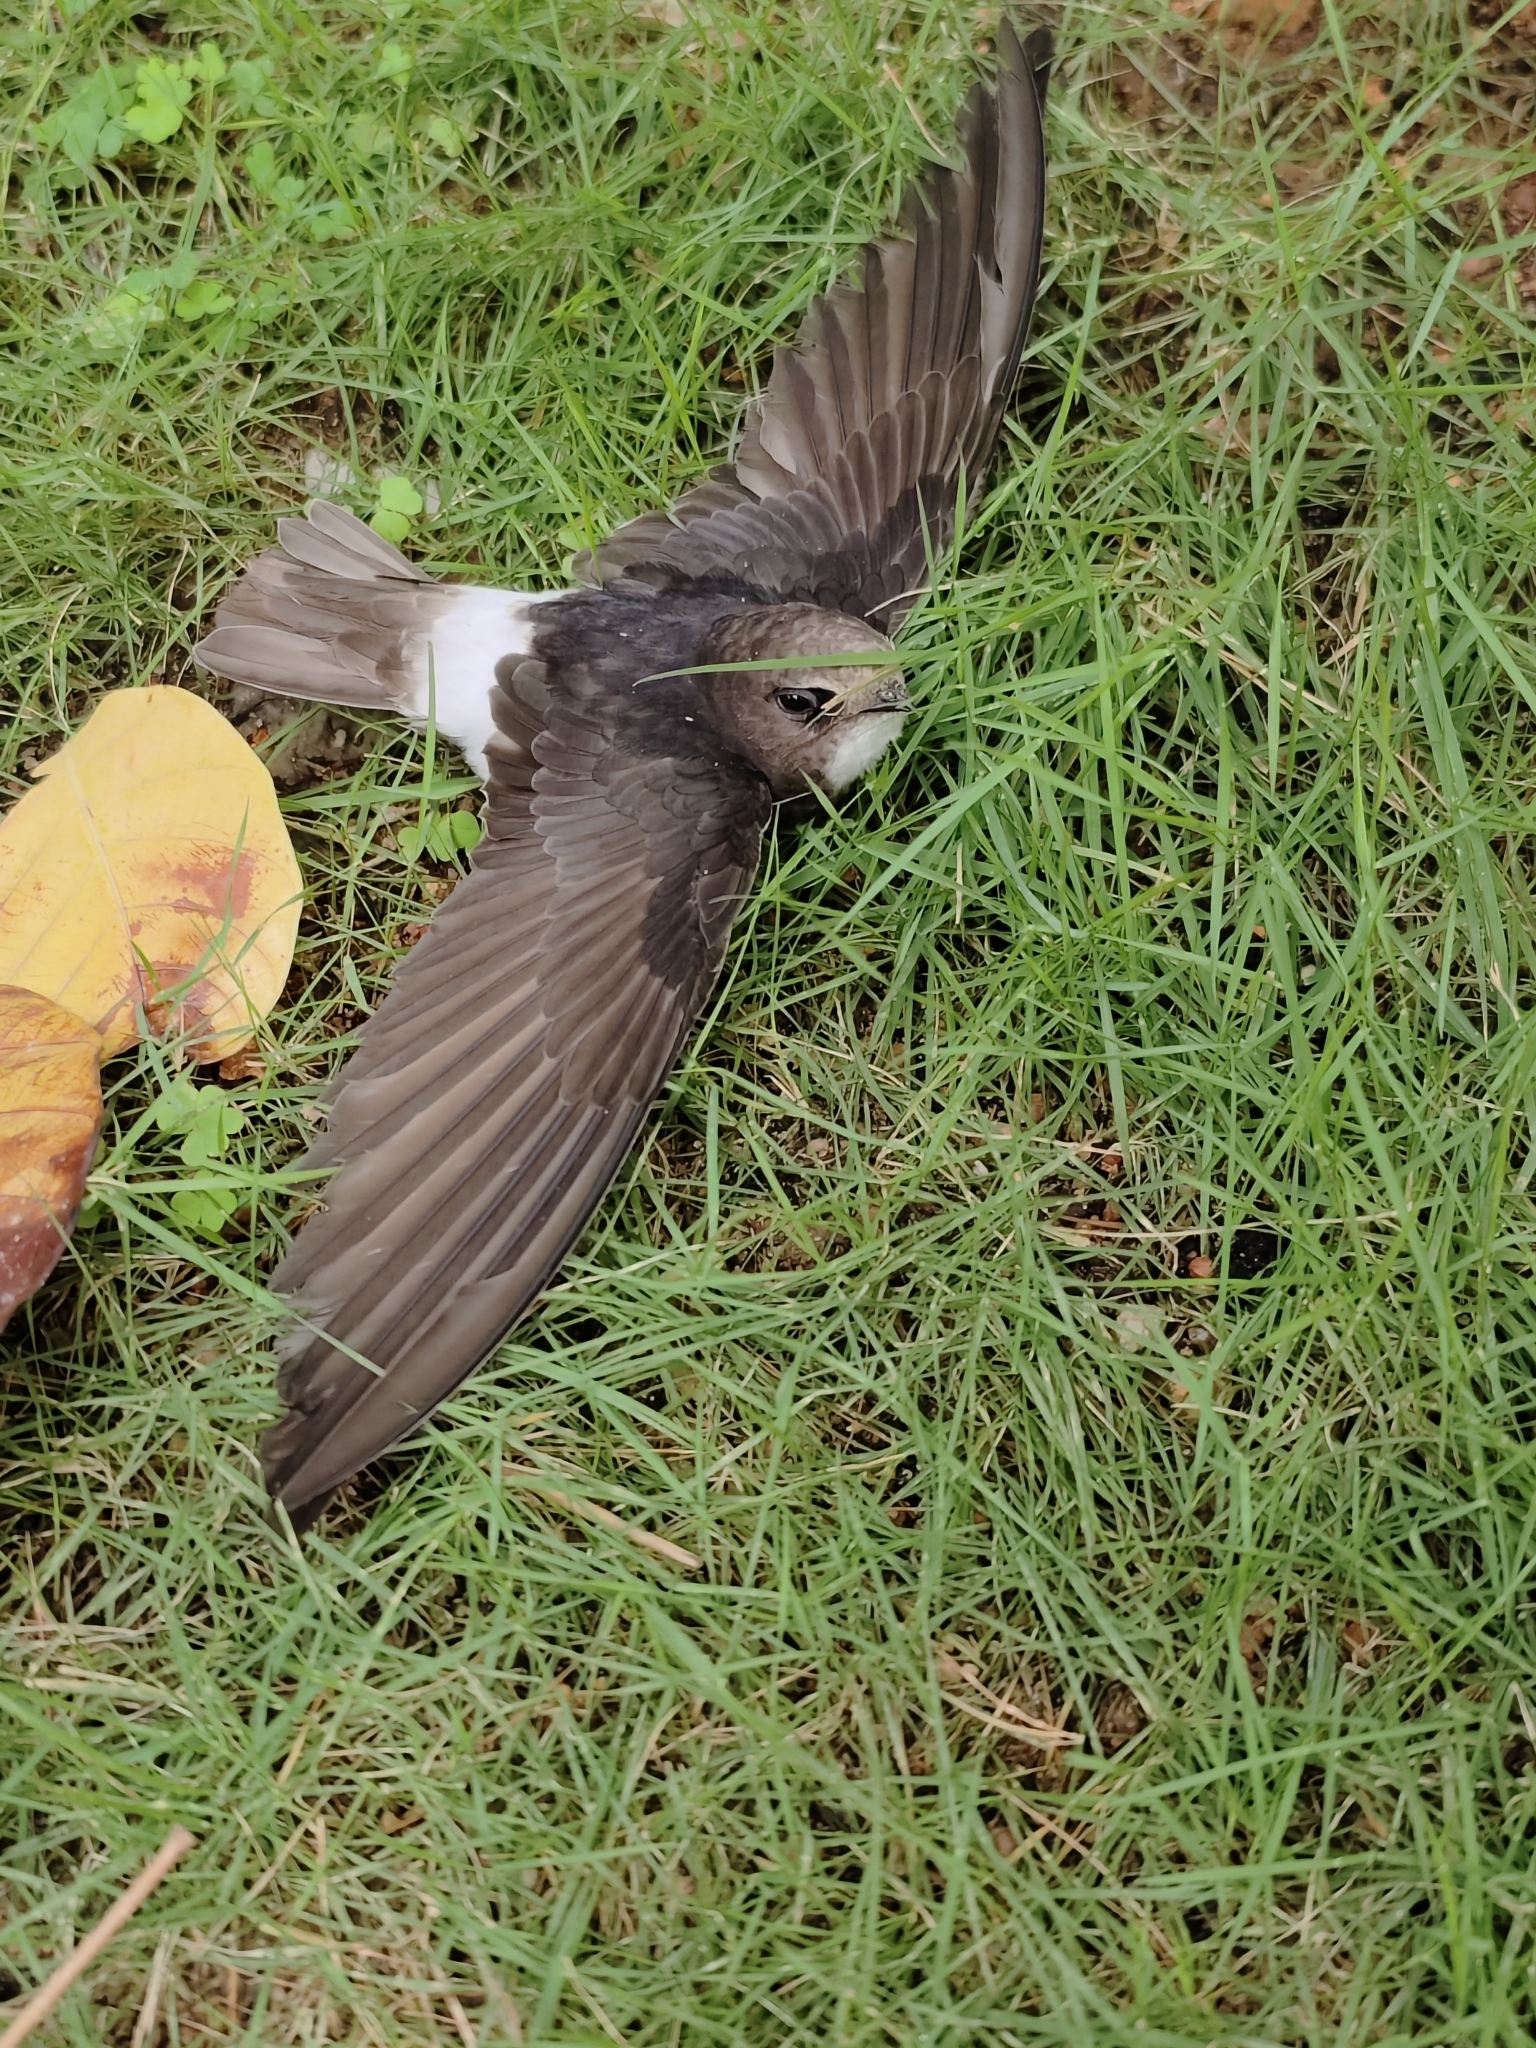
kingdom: Animalia
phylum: Chordata
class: Aves
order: Apodiformes
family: Apodidae
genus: Apus
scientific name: Apus affinis
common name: Little swift
